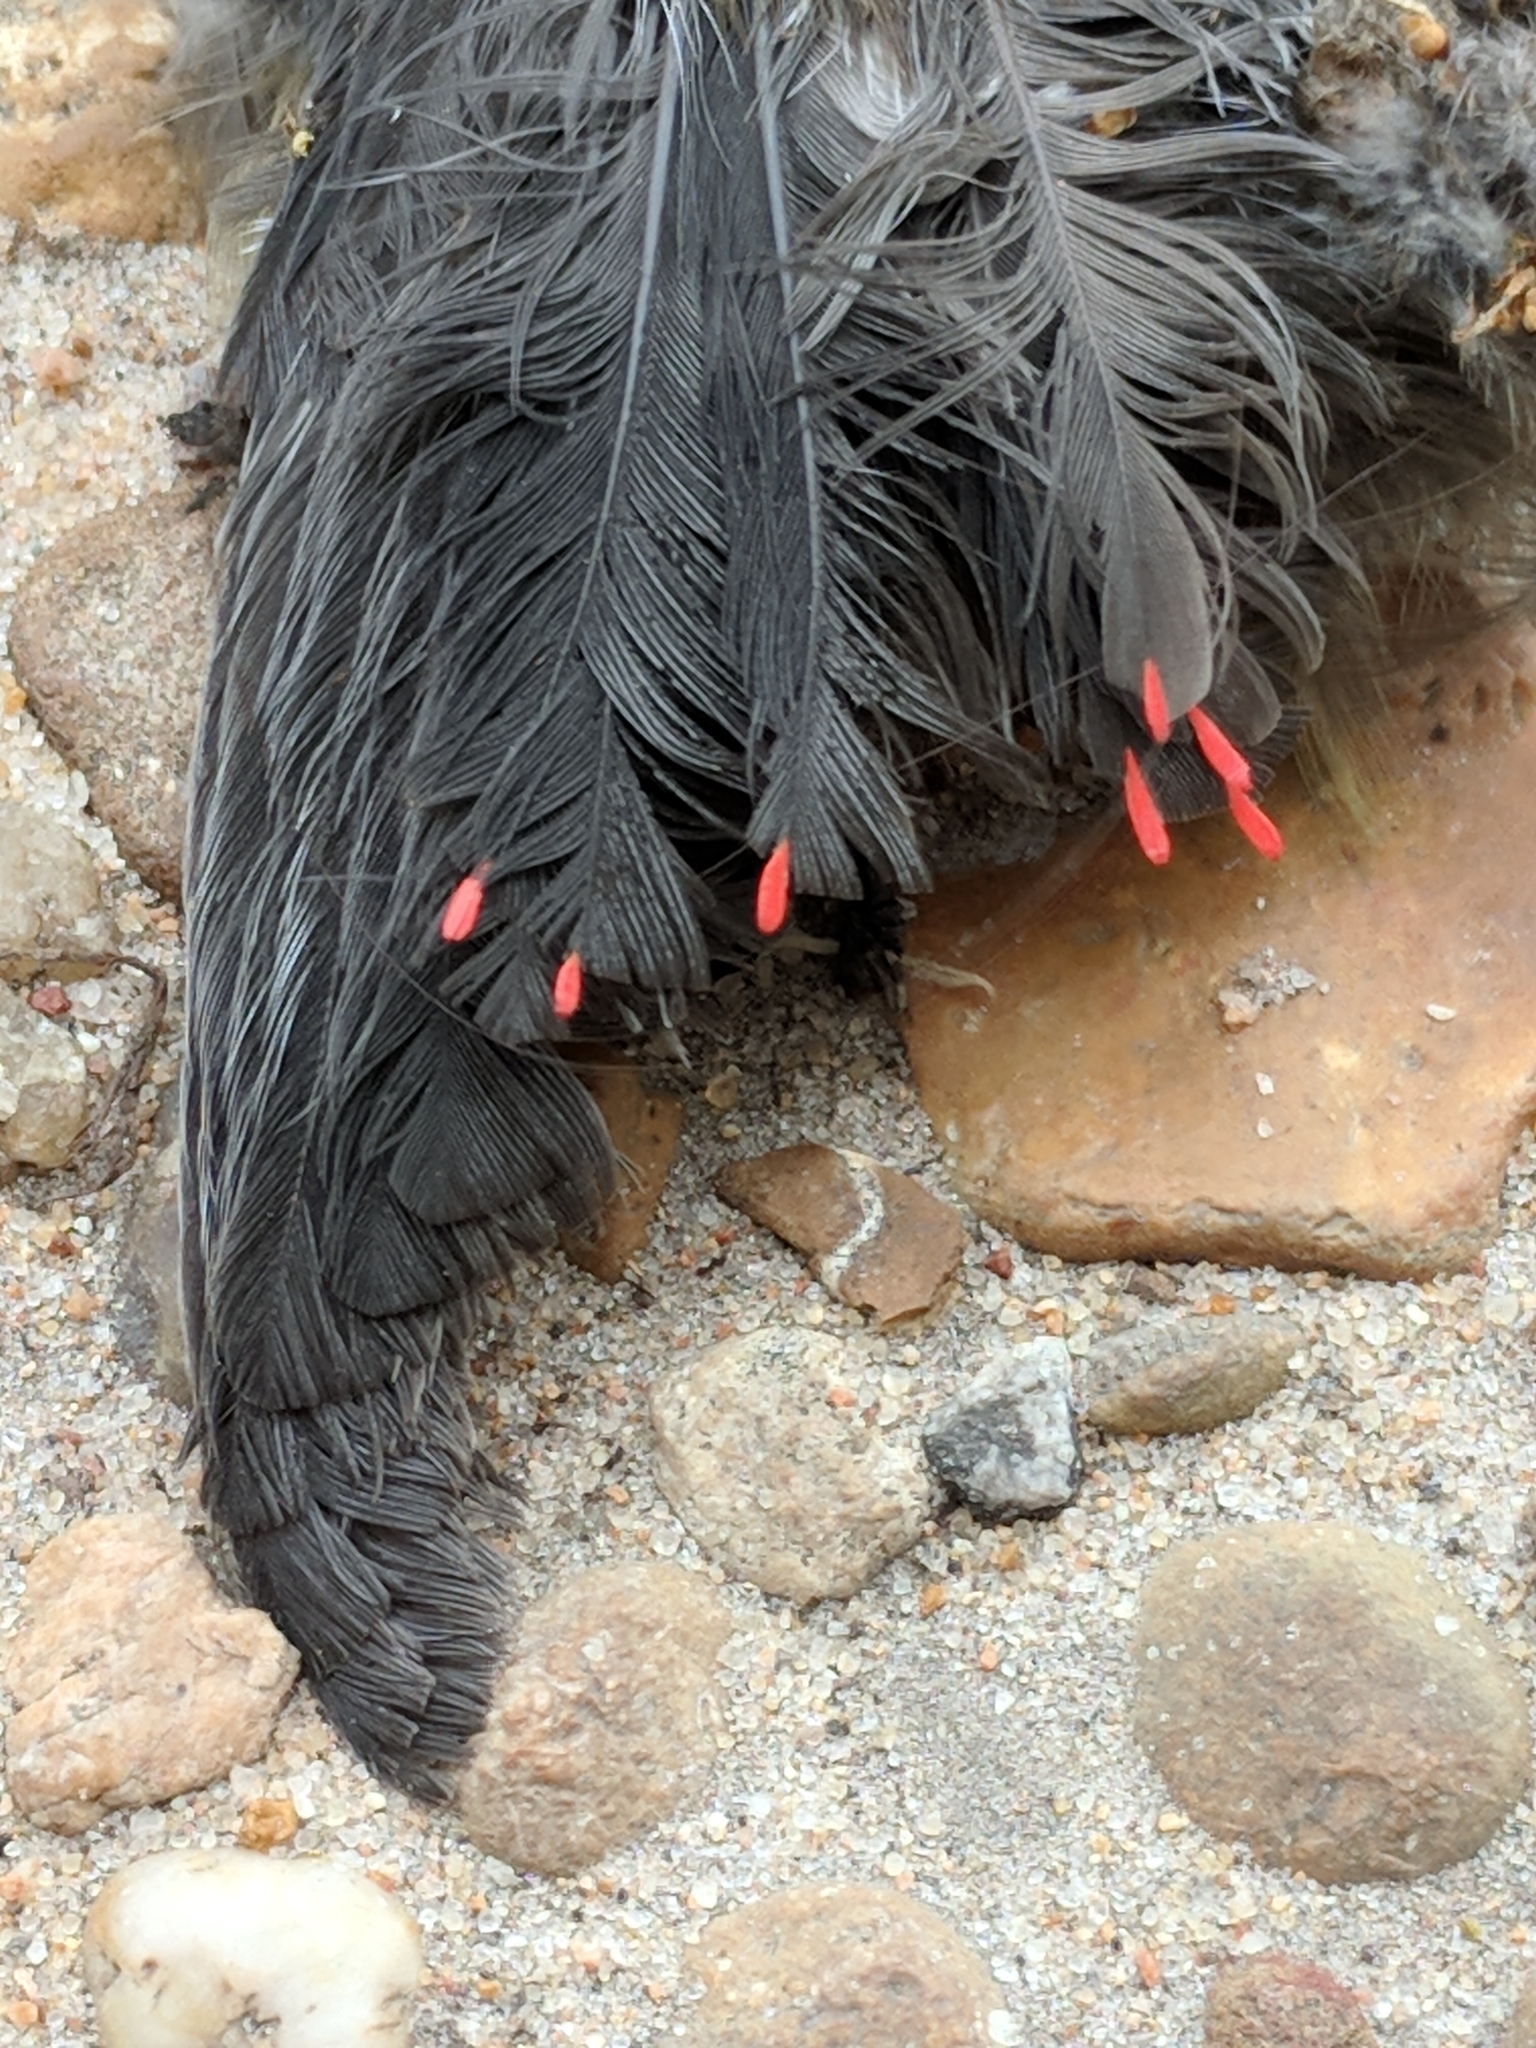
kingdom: Animalia
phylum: Chordata
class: Aves
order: Passeriformes
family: Bombycillidae
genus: Bombycilla
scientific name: Bombycilla cedrorum
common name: Cedar waxwing
